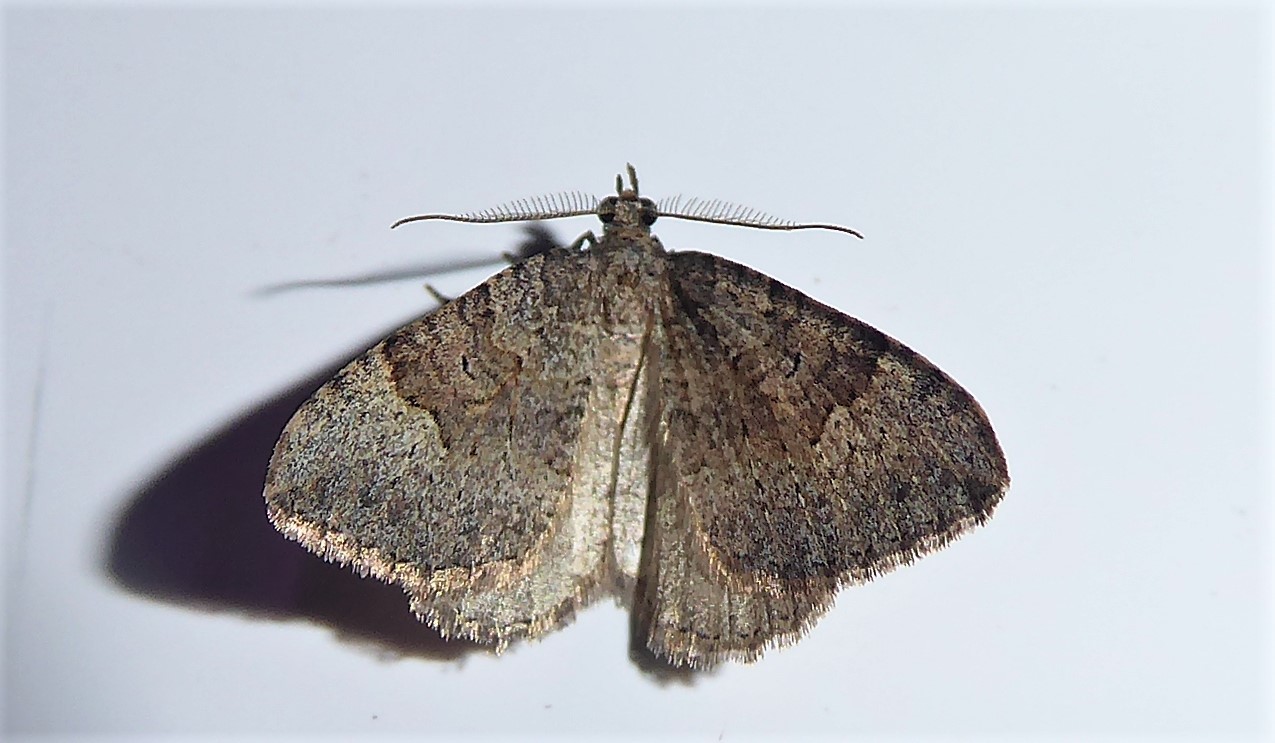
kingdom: Animalia
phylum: Arthropoda
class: Insecta
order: Lepidoptera
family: Geometridae
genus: Epyaxa
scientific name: Epyaxa rosearia
